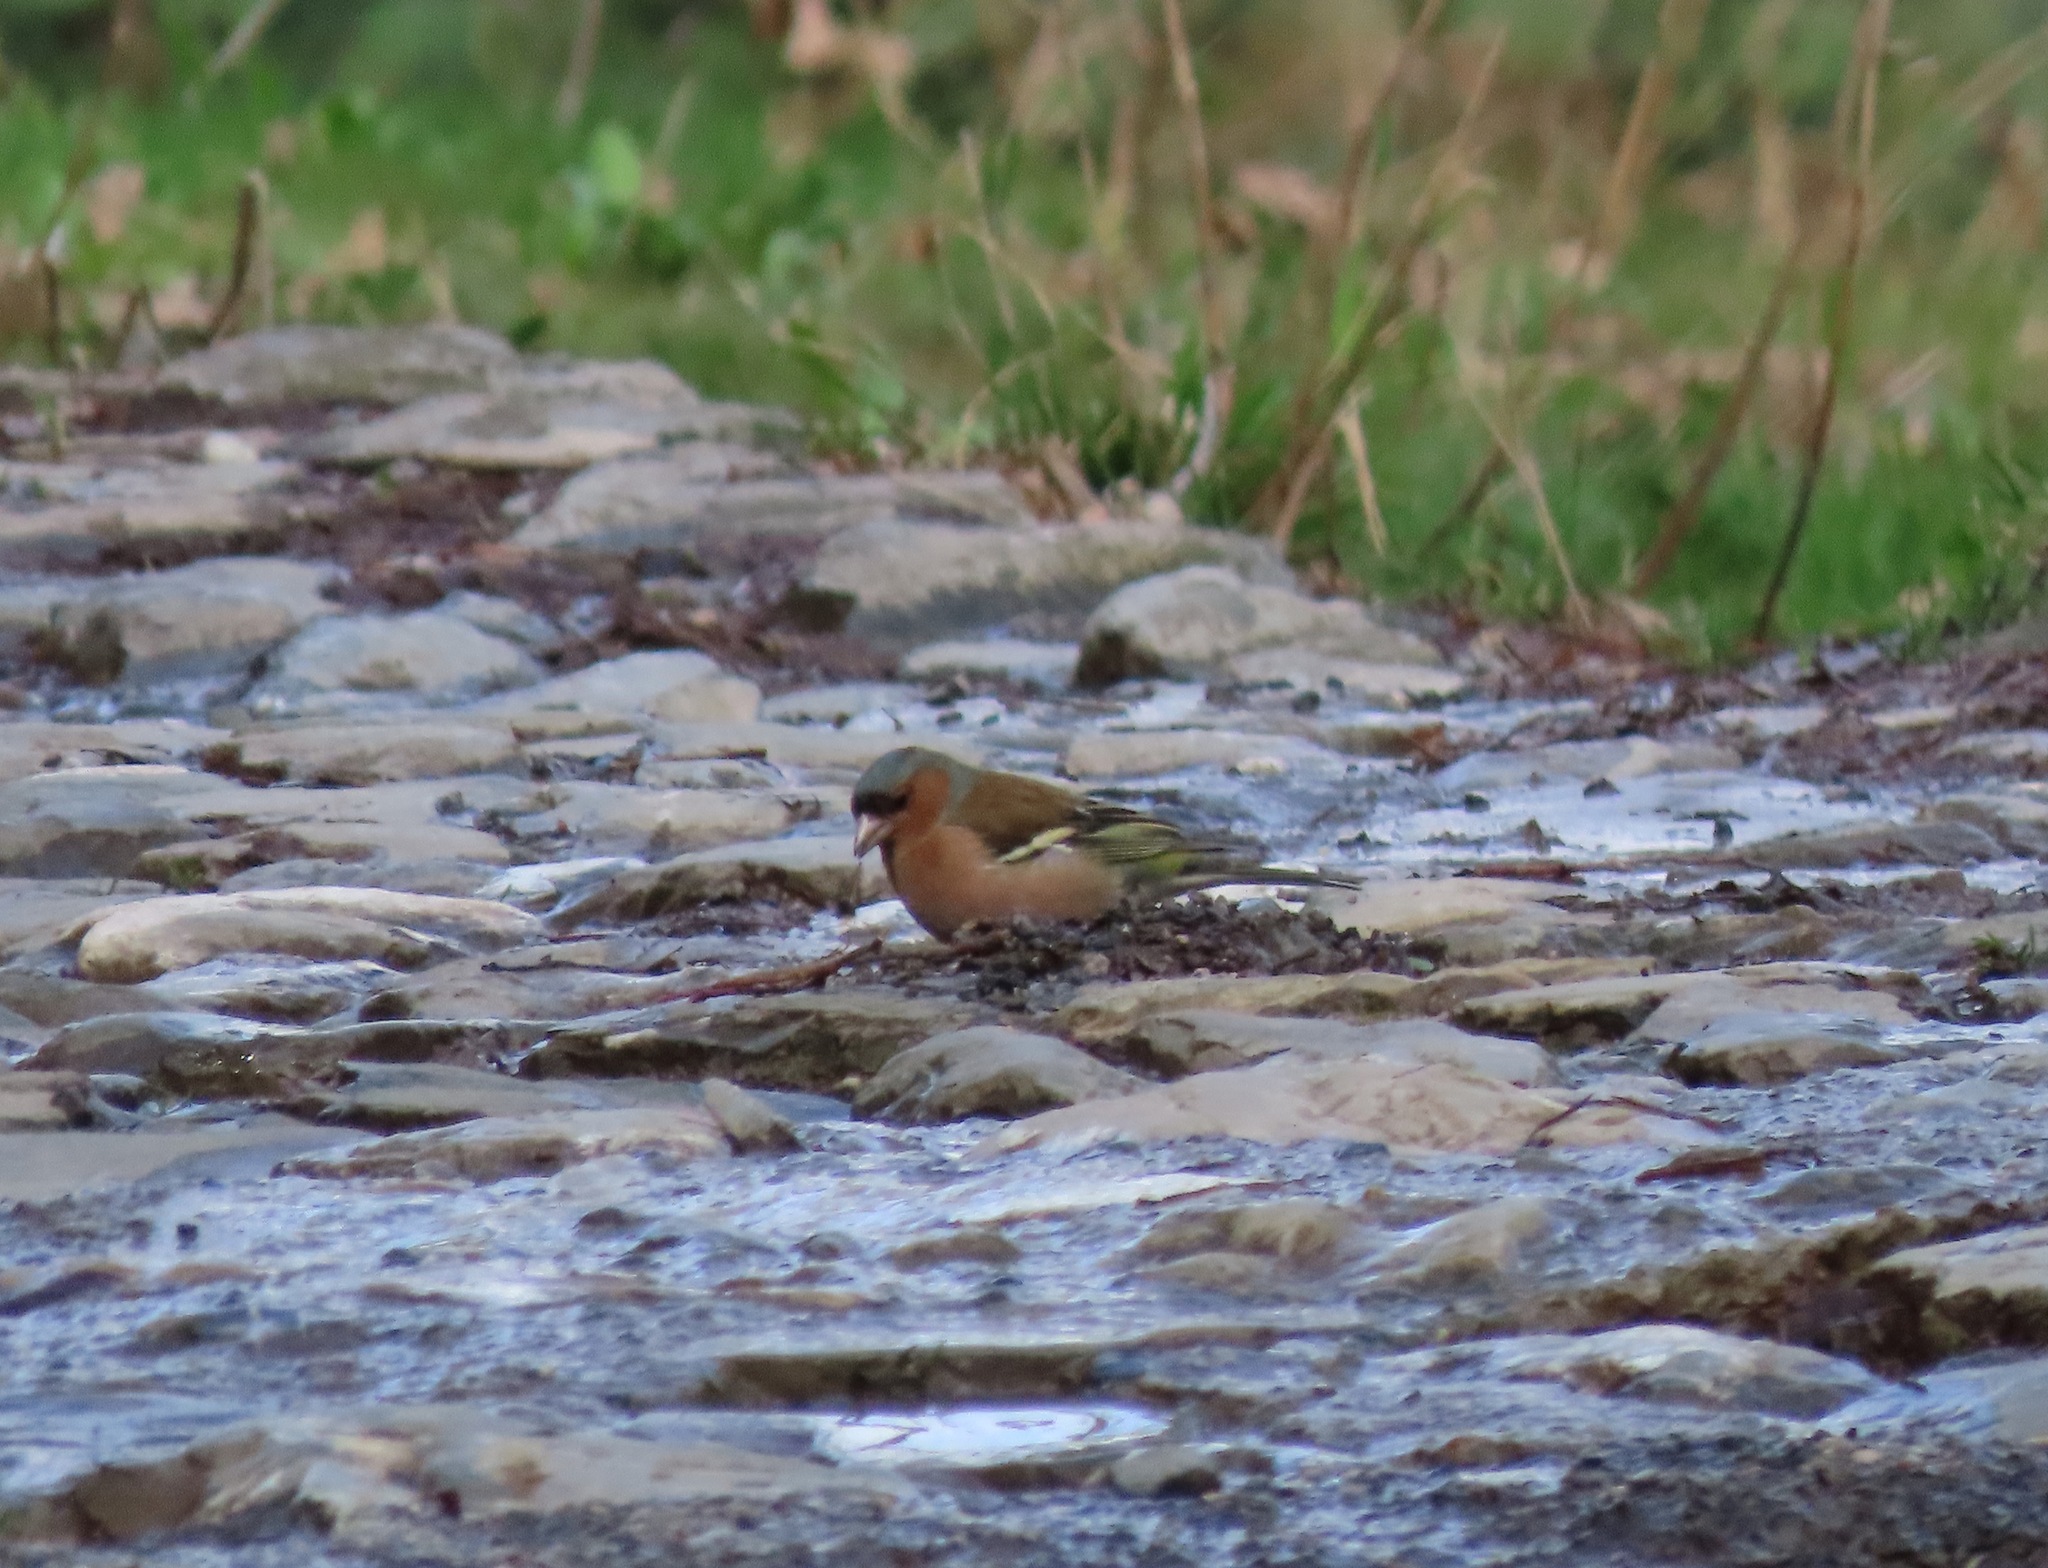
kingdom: Animalia
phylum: Chordata
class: Aves
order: Passeriformes
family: Fringillidae
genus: Fringilla
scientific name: Fringilla coelebs
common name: Common chaffinch
